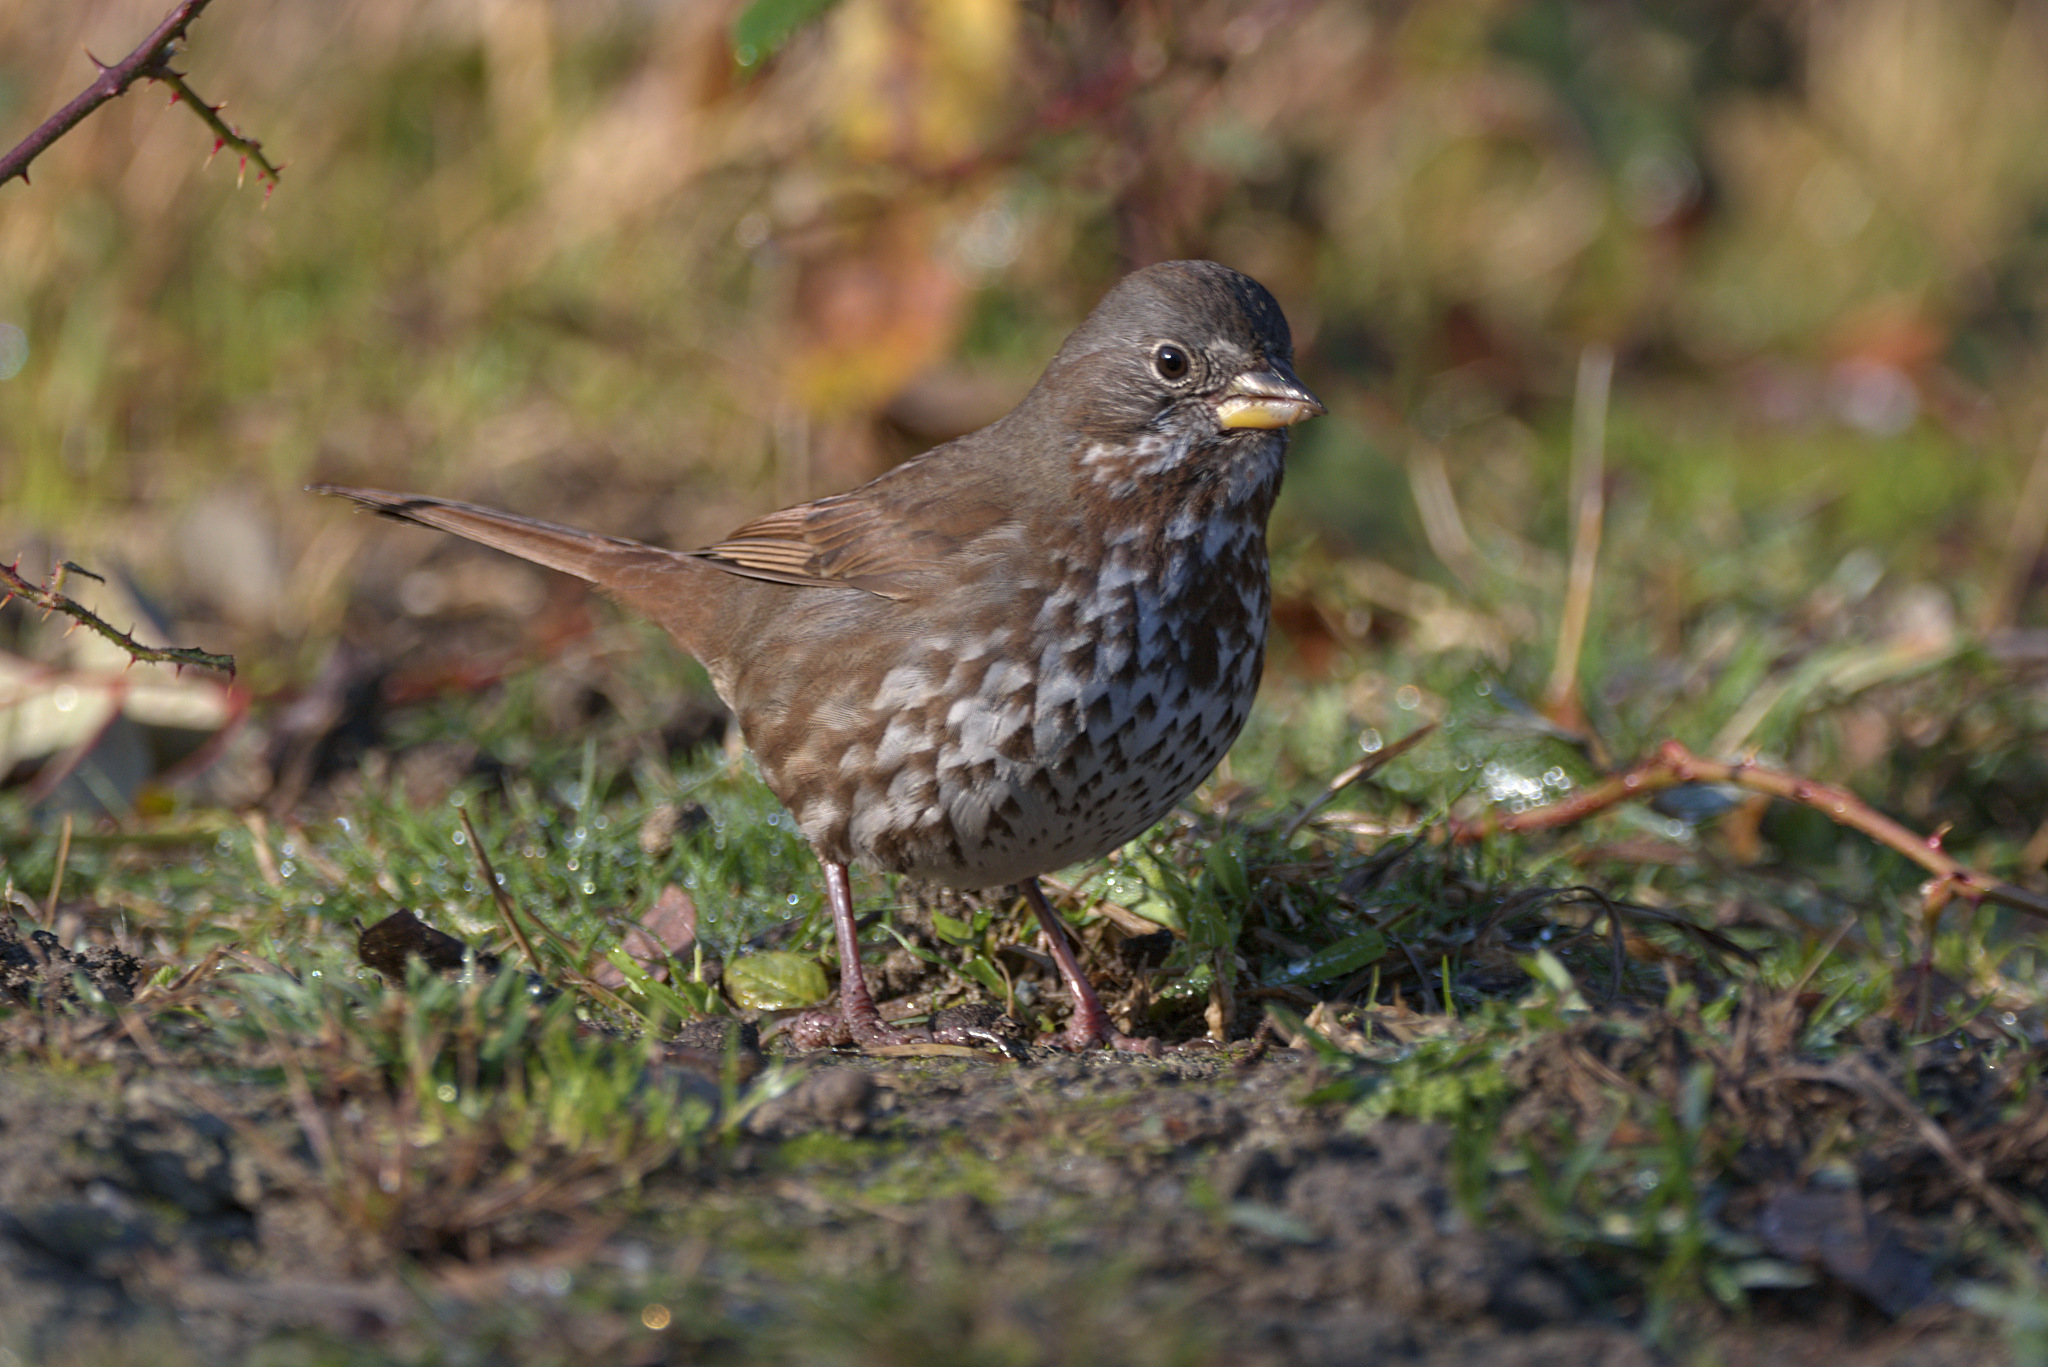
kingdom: Animalia
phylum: Chordata
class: Aves
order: Passeriformes
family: Passerellidae
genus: Passerella
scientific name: Passerella iliaca
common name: Fox sparrow
